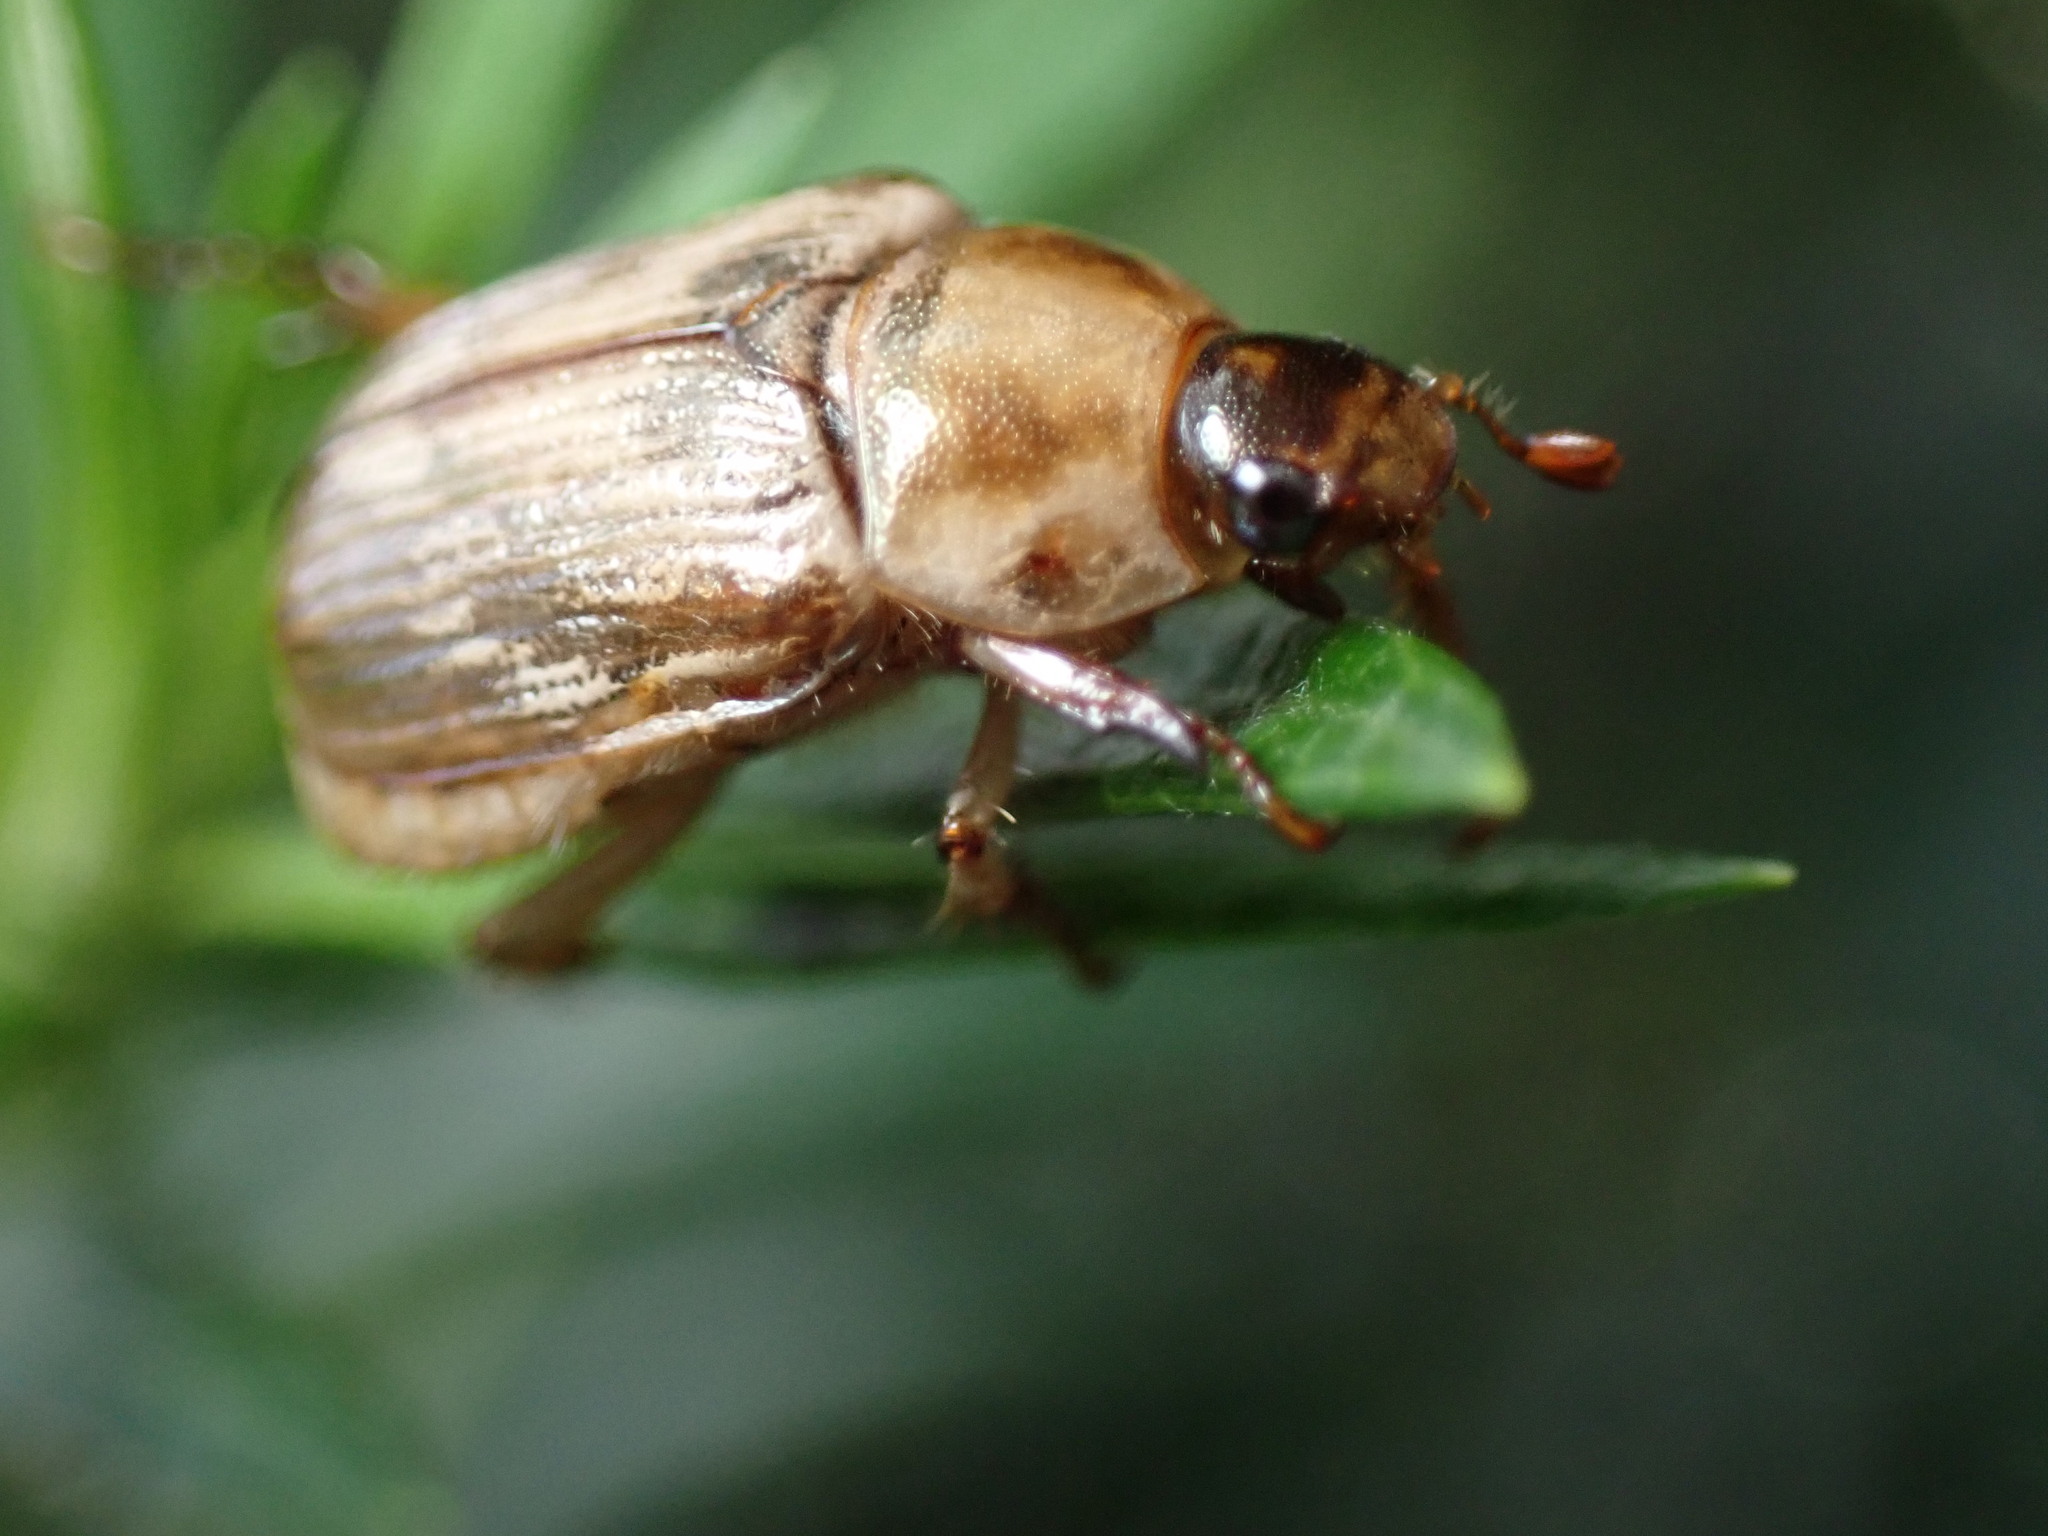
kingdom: Animalia
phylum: Arthropoda
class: Insecta
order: Coleoptera
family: Scarabaeidae
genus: Exomala
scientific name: Exomala orientalis
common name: Oriental beetle
